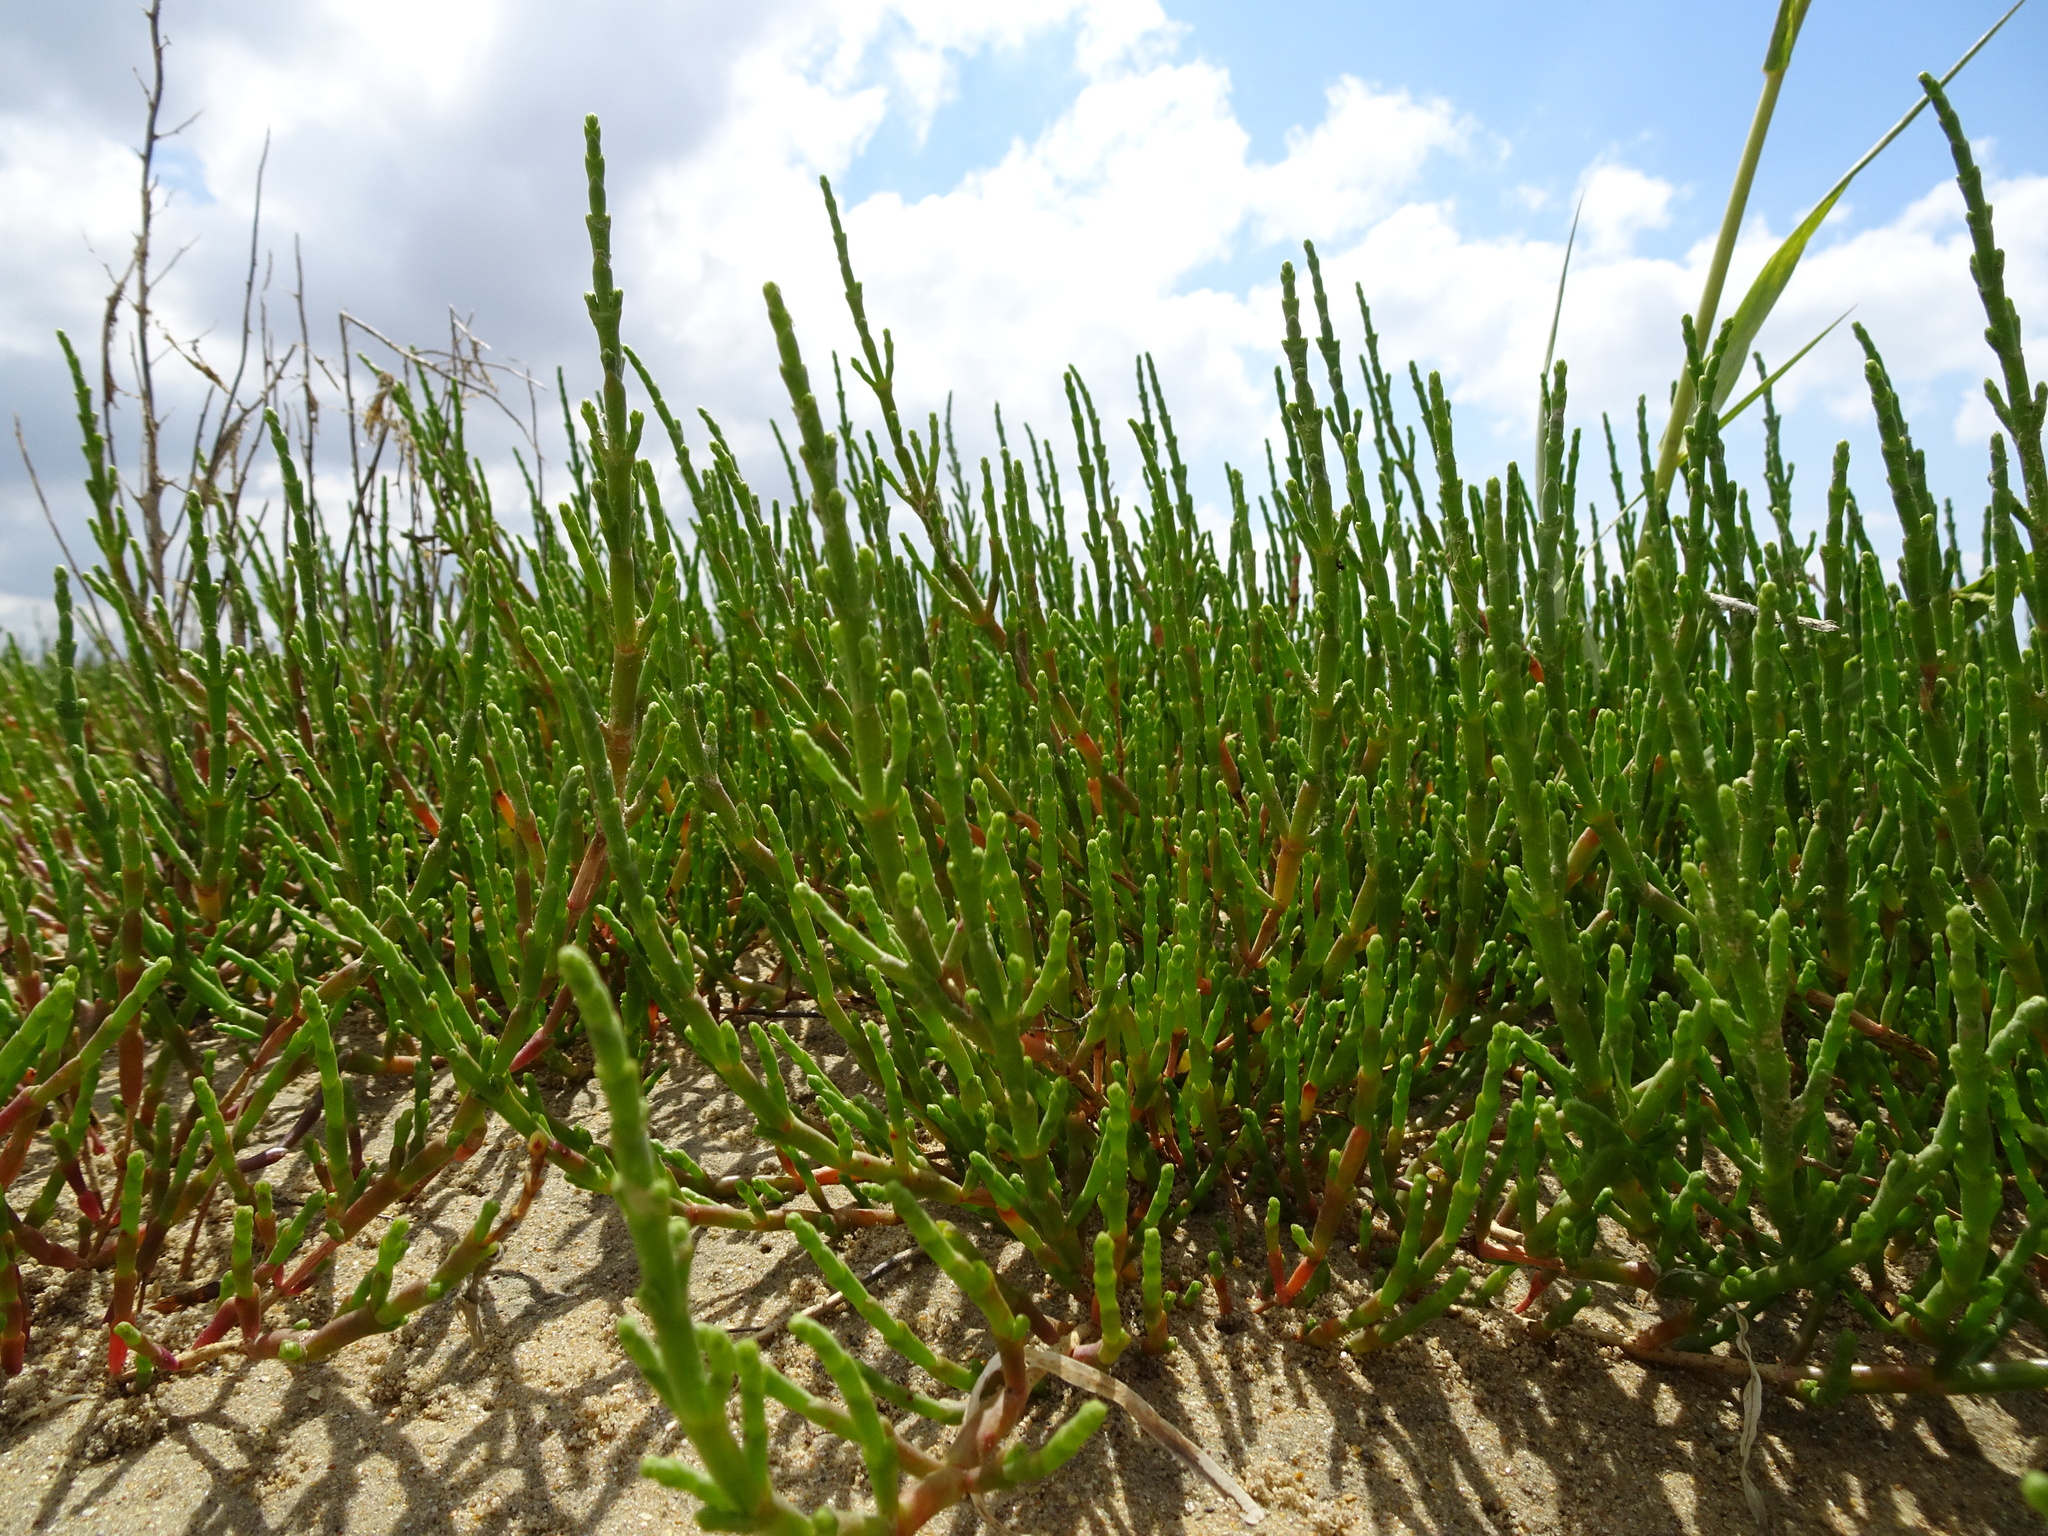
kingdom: Plantae
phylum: Tracheophyta
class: Magnoliopsida
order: Caryophyllales
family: Amaranthaceae
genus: Salicornia
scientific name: Salicornia europaea
